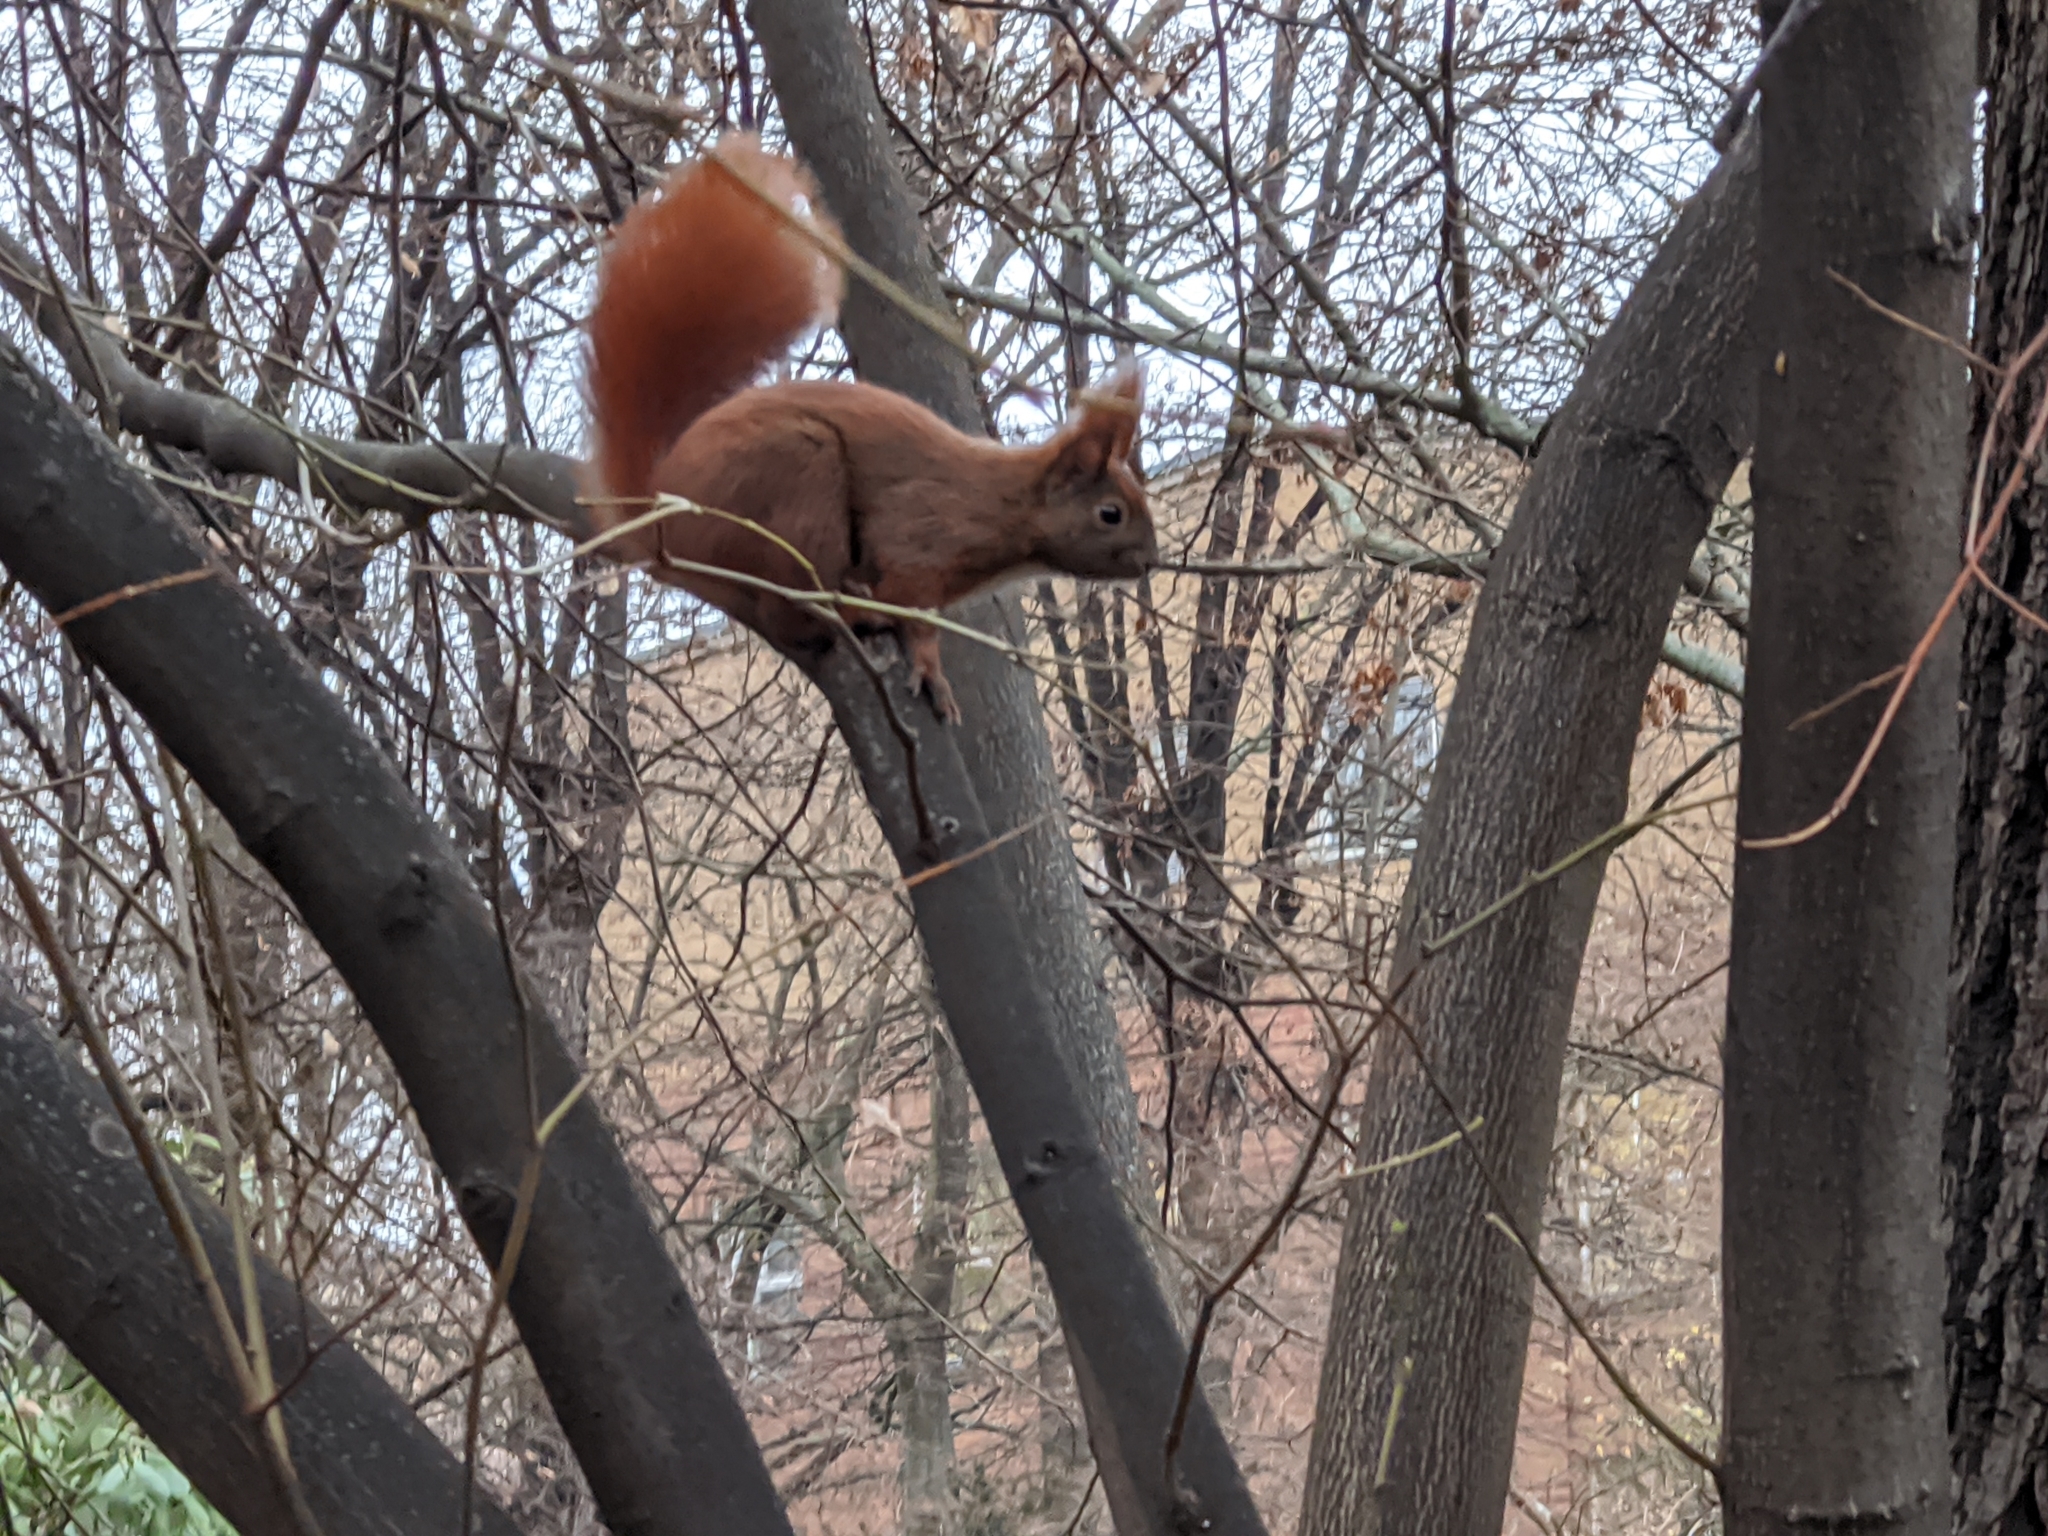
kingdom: Animalia
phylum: Chordata
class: Mammalia
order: Rodentia
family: Sciuridae
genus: Sciurus
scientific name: Sciurus vulgaris
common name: Eurasian red squirrel
